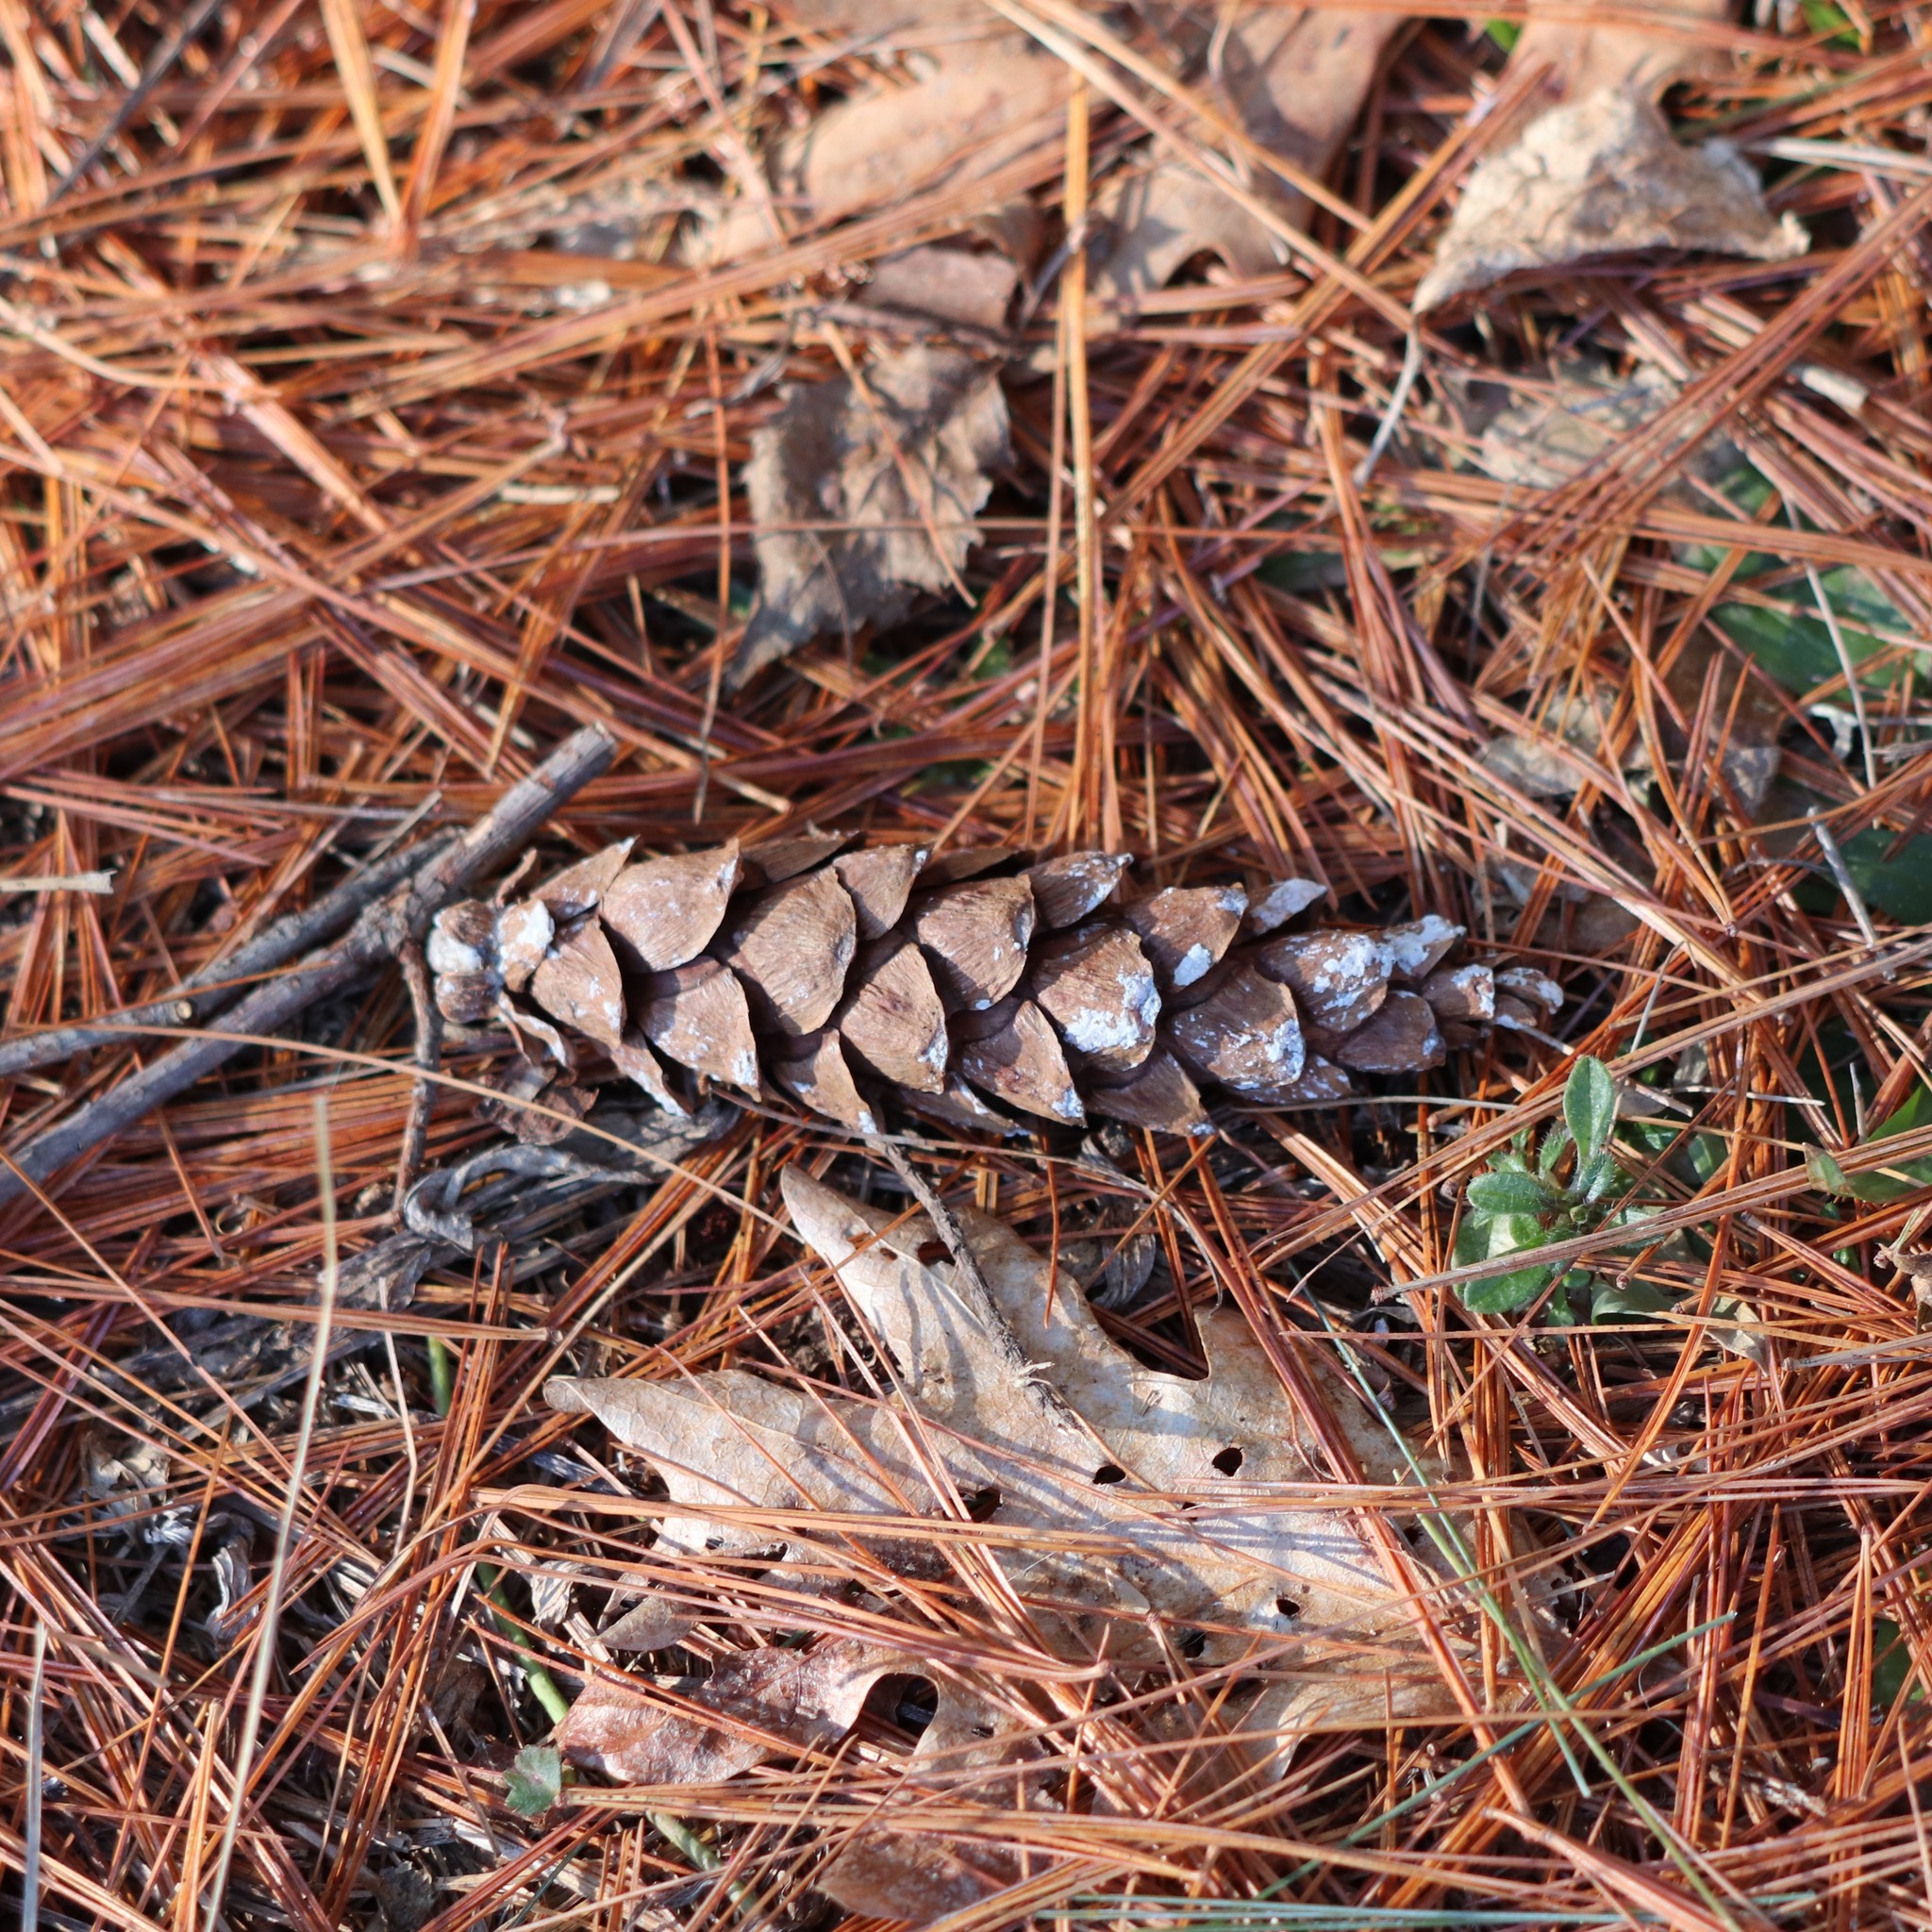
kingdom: Plantae
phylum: Tracheophyta
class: Pinopsida
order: Pinales
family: Pinaceae
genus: Pinus
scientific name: Pinus strobus
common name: Weymouth pine
